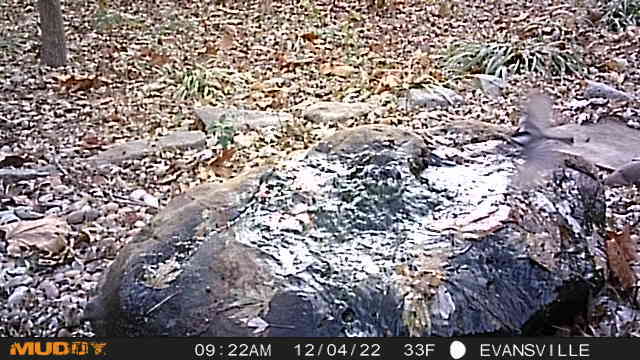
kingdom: Animalia
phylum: Chordata
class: Aves
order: Passeriformes
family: Paridae
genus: Poecile
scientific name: Poecile carolinensis
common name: Carolina chickadee
